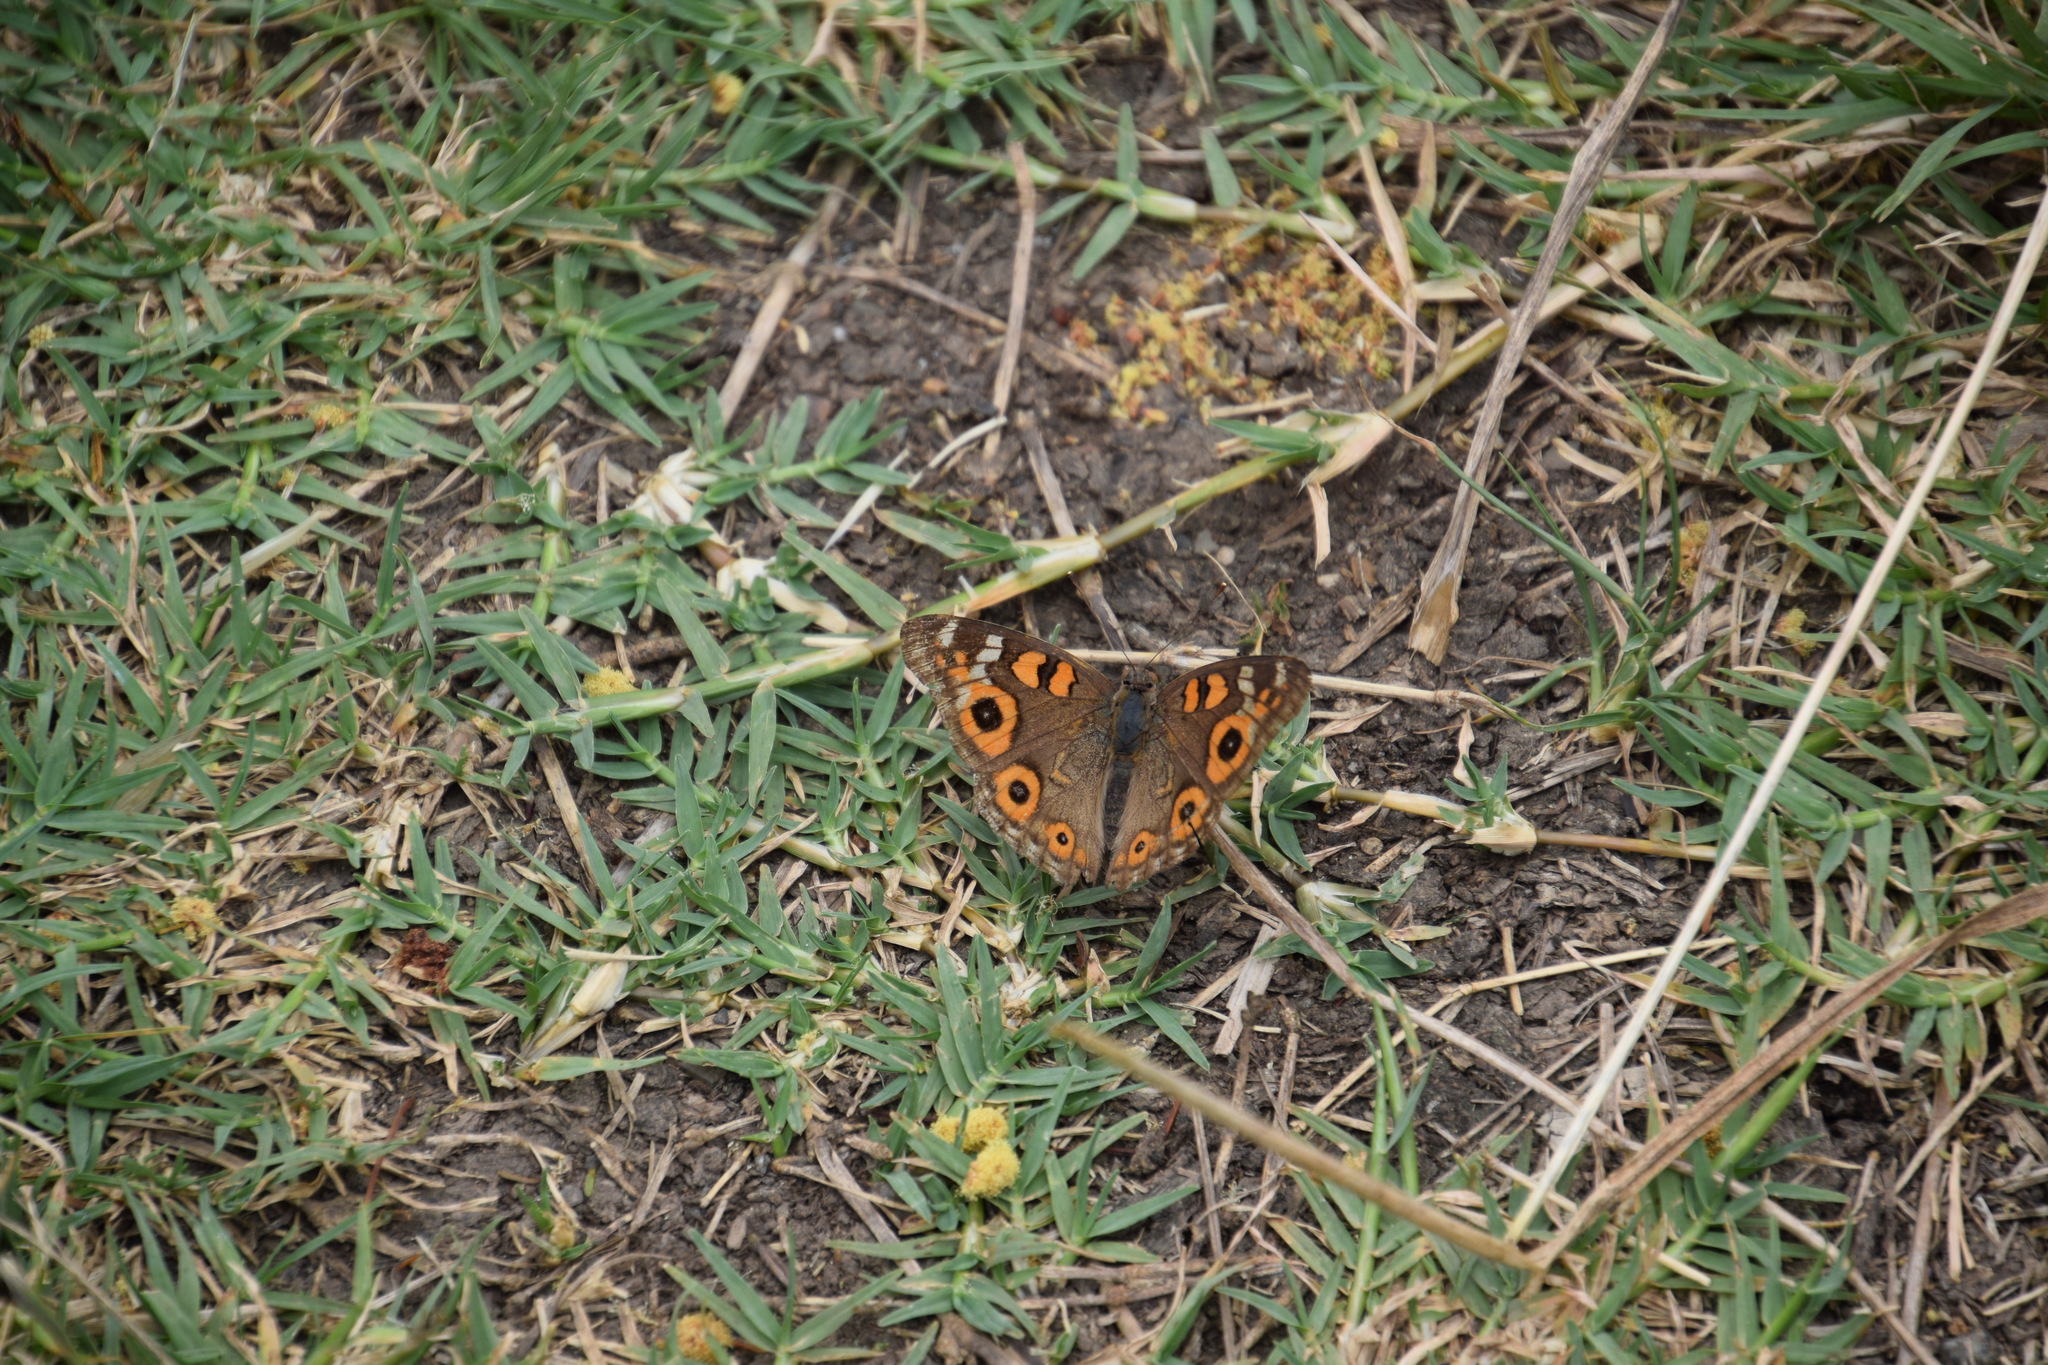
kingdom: Animalia
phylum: Arthropoda
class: Insecta
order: Lepidoptera
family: Nymphalidae
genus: Junonia
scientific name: Junonia villida
